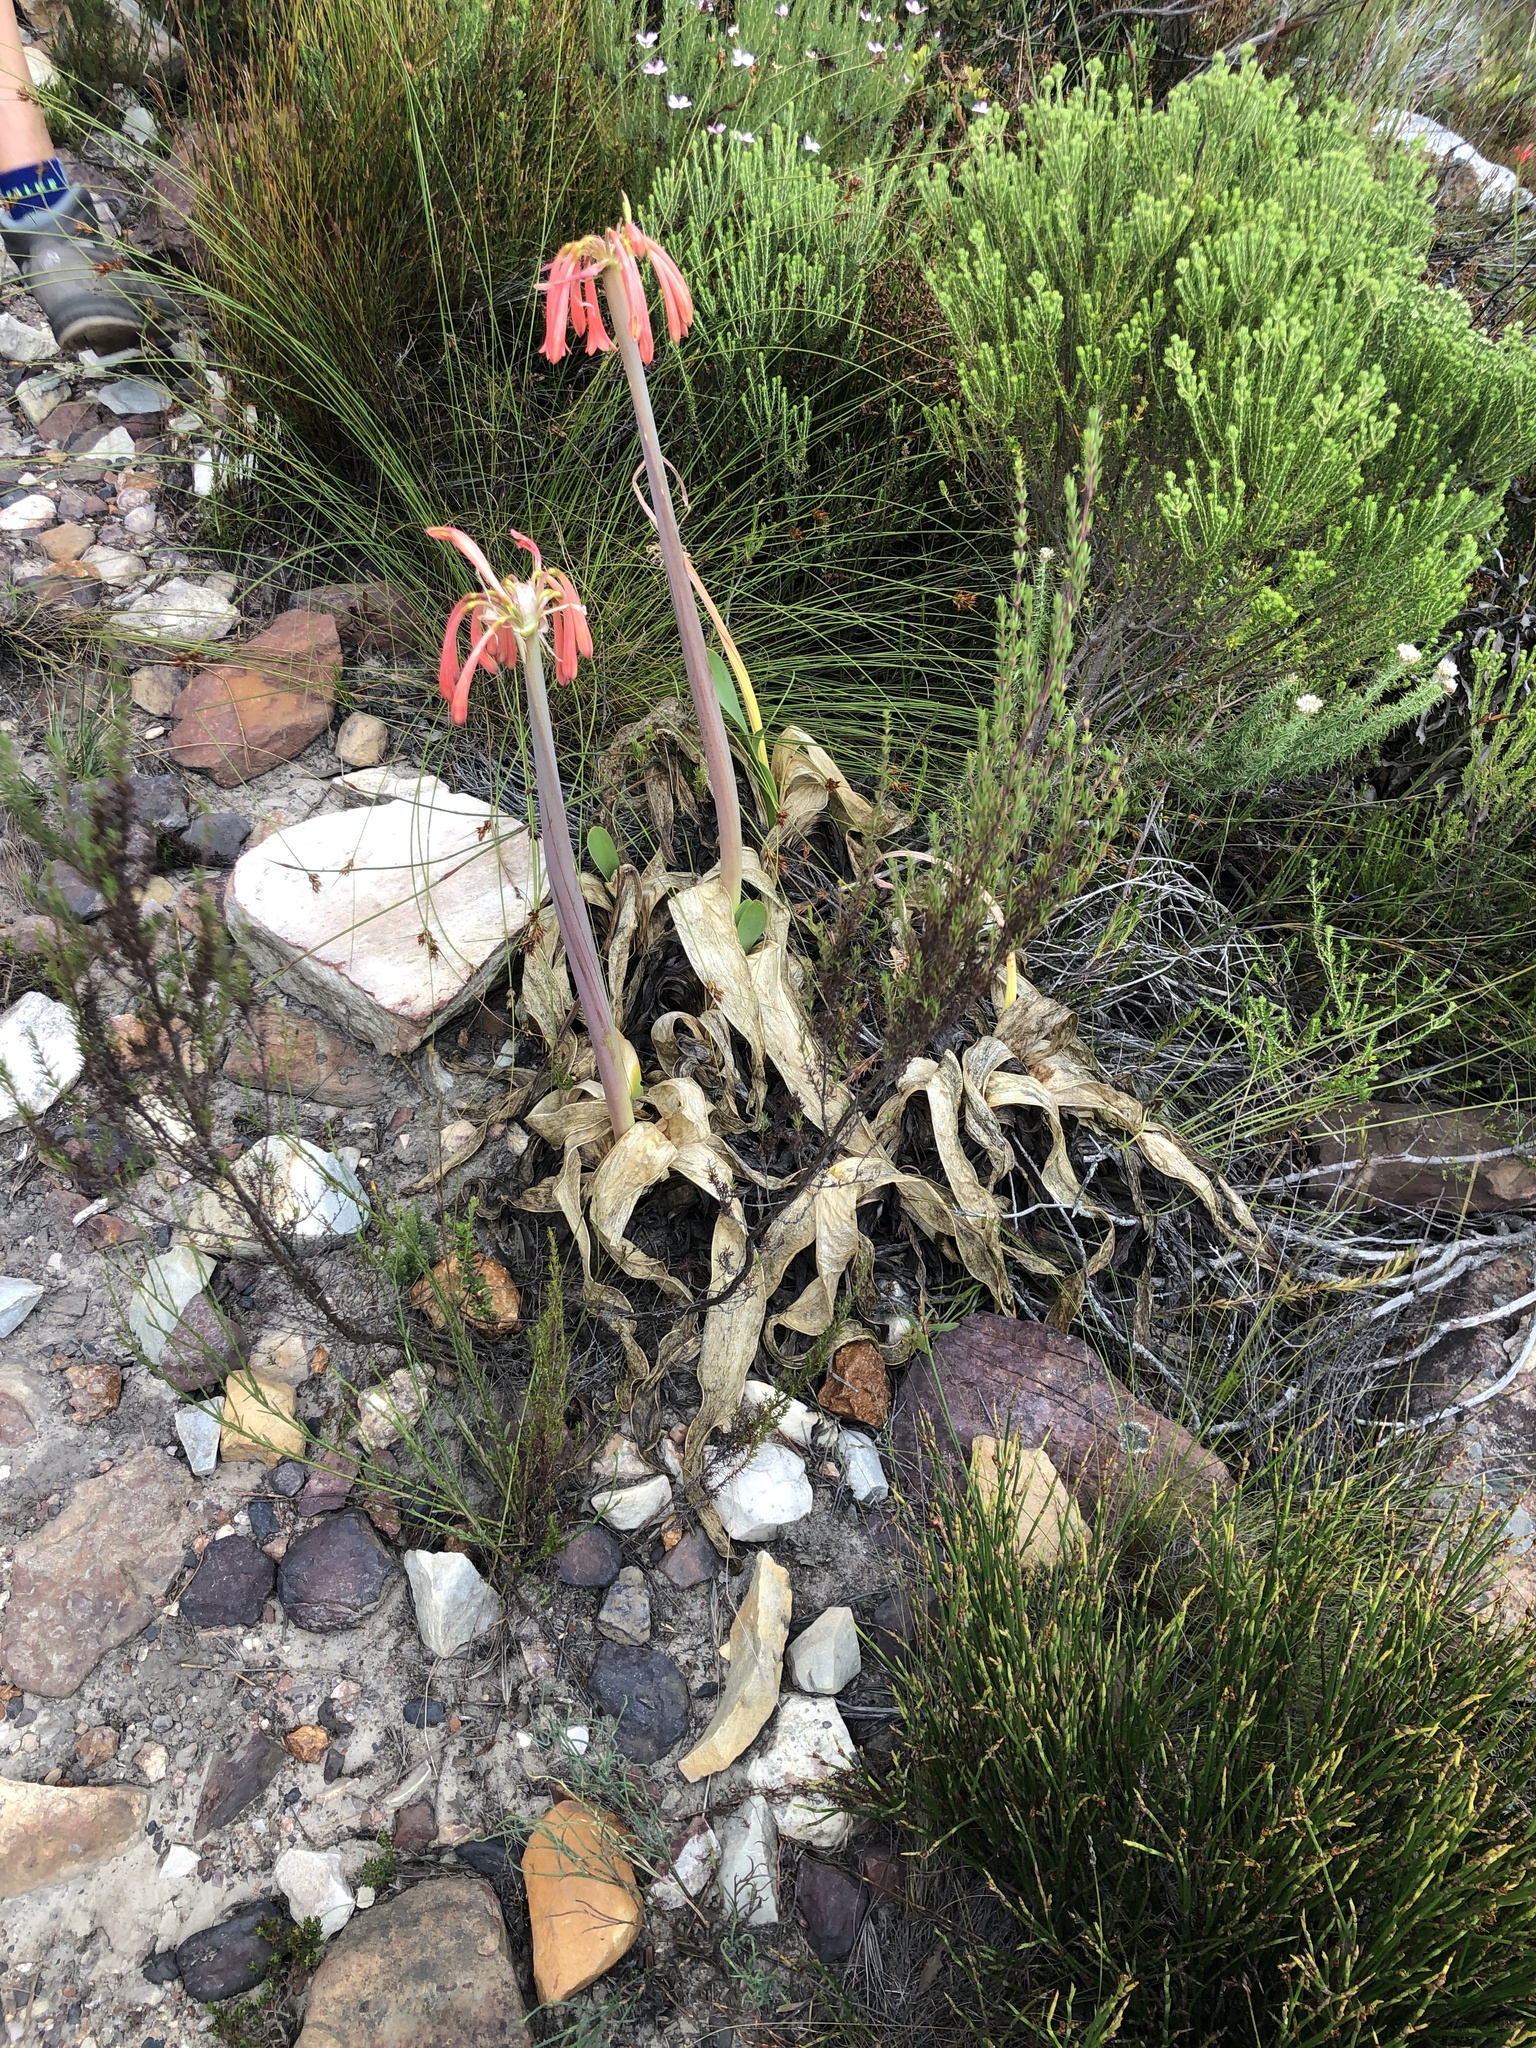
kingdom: Plantae
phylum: Tracheophyta
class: Liliopsida
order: Asparagales
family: Amaryllidaceae
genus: Cyrtanthus
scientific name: Cyrtanthus carneus
